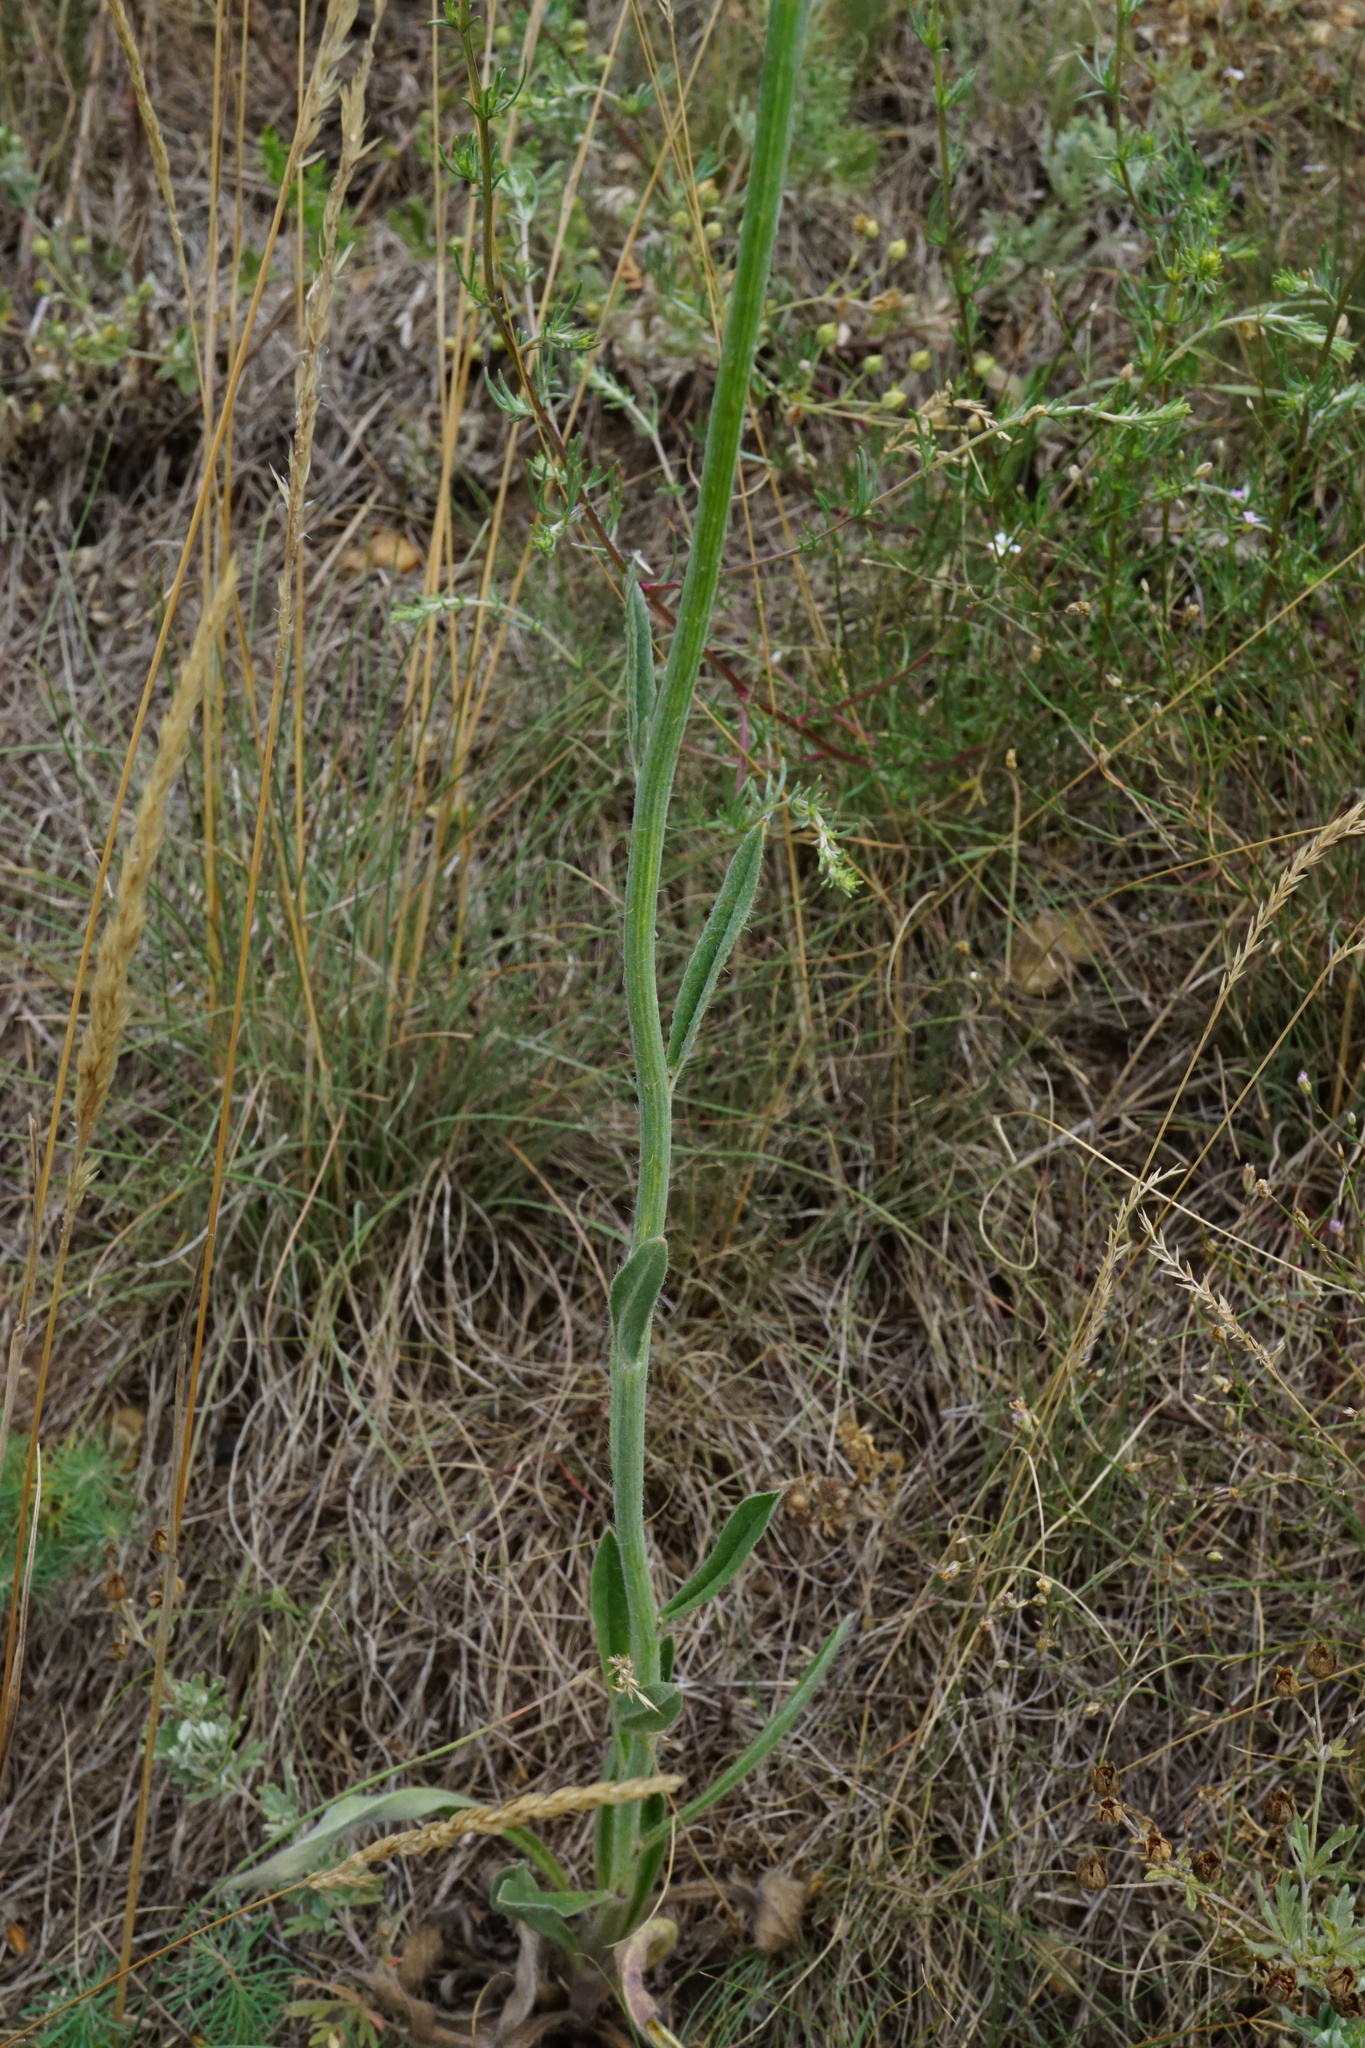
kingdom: Plantae
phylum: Tracheophyta
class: Magnoliopsida
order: Asterales
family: Asteraceae
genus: Pilosella
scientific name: Pilosella echioides
